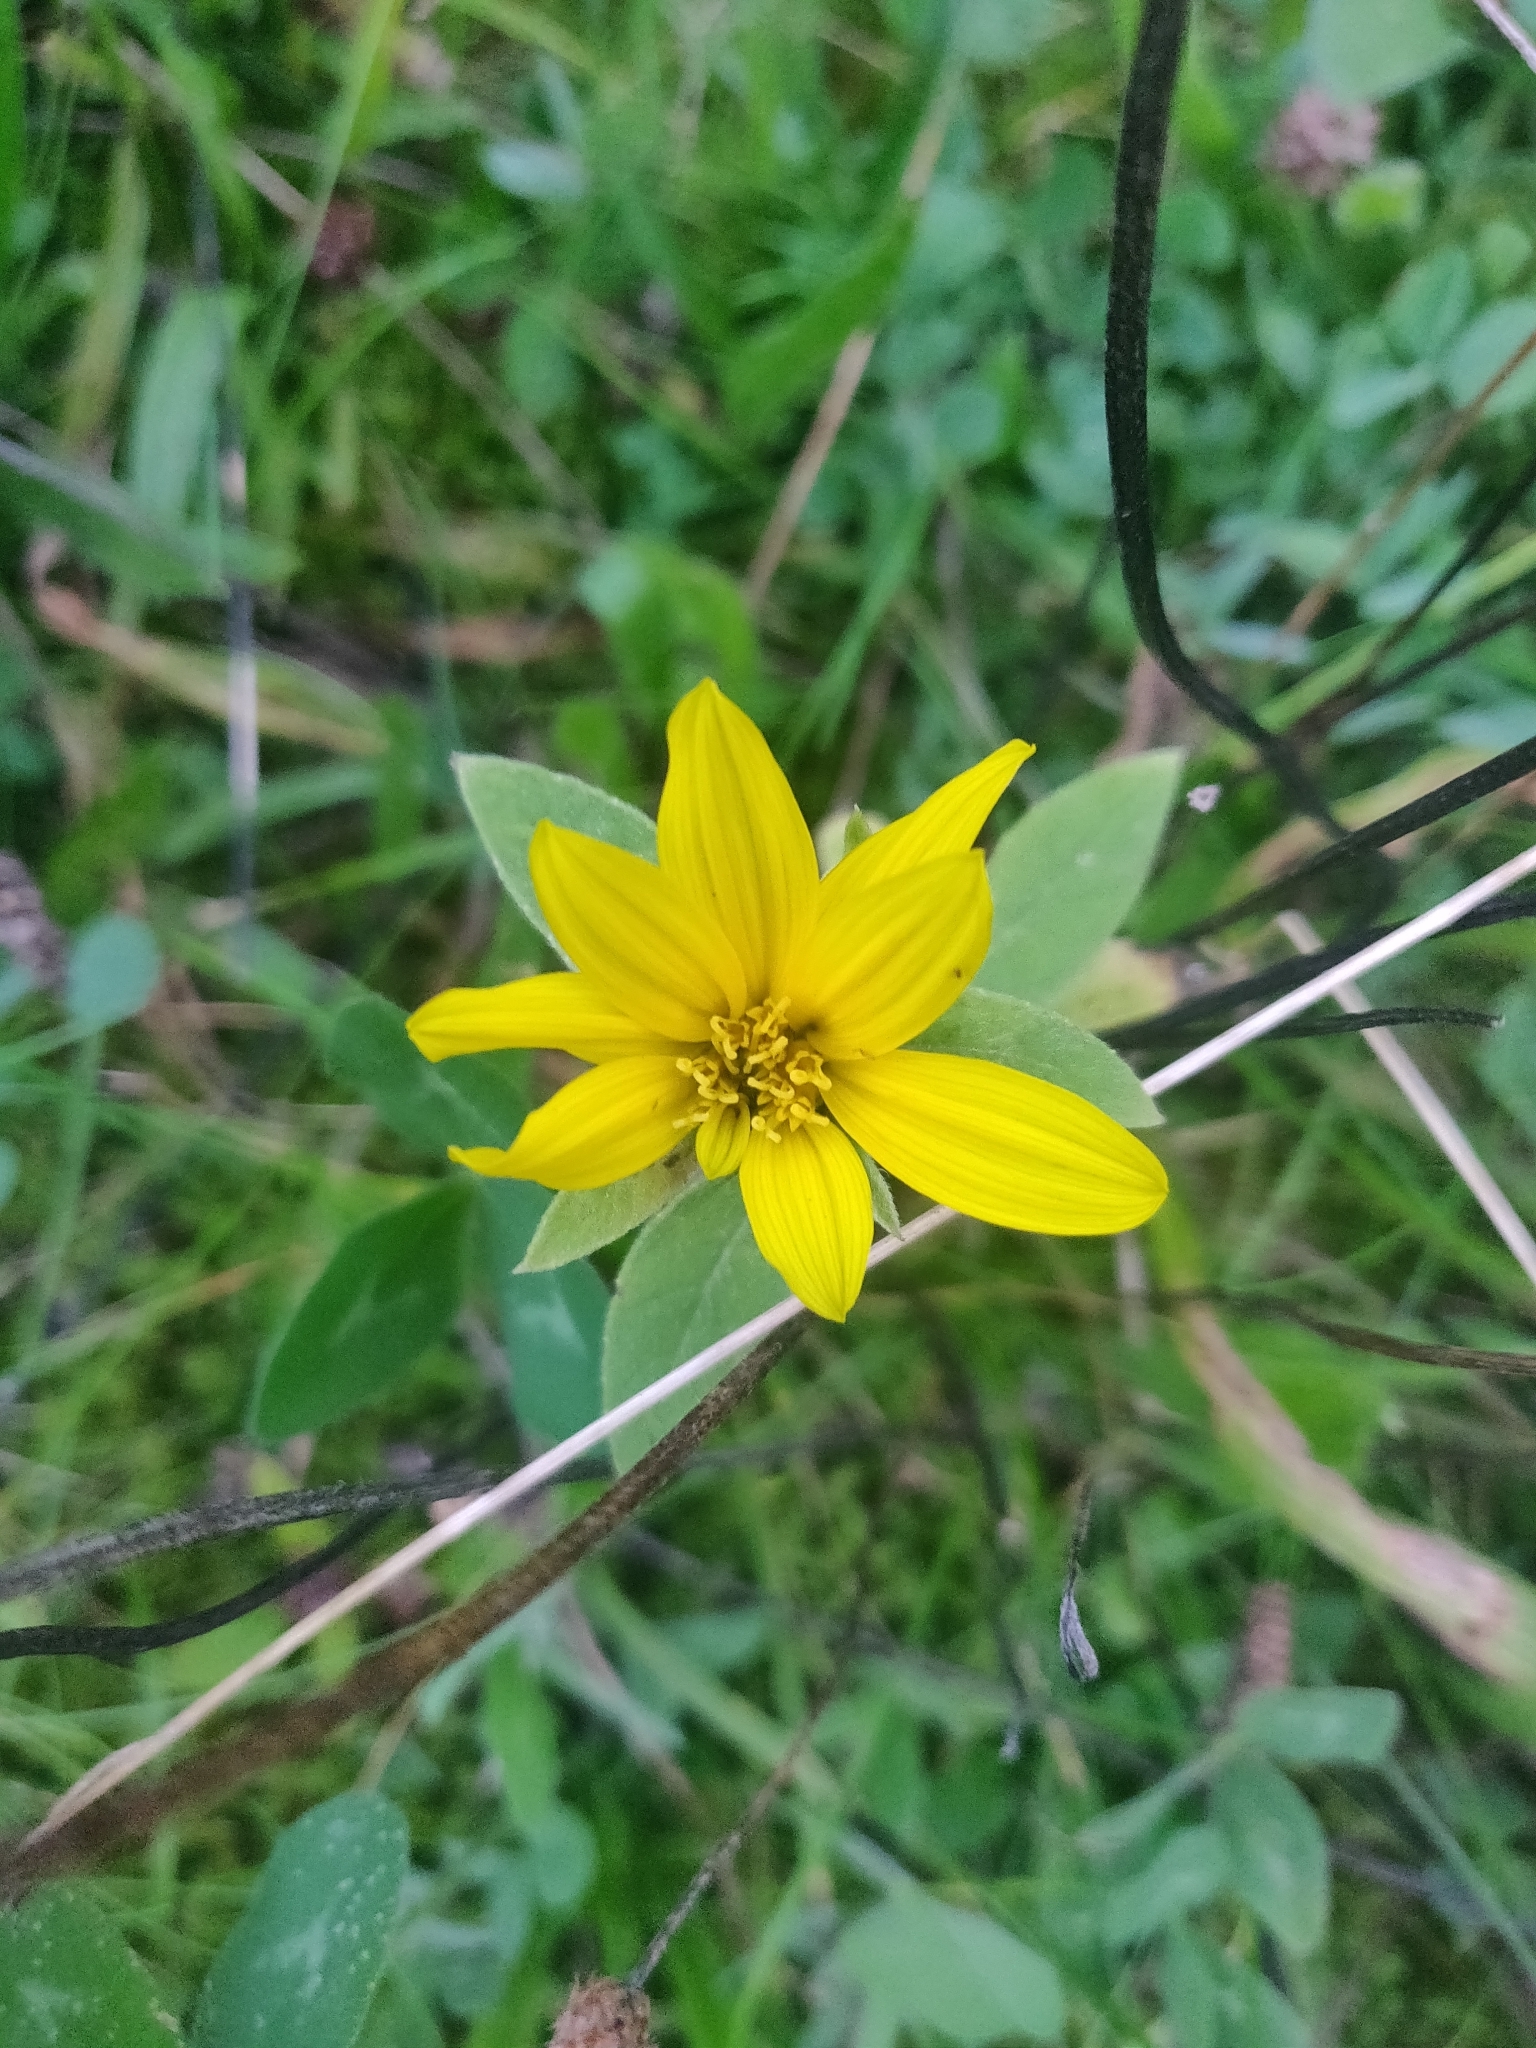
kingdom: Plantae
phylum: Tracheophyta
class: Magnoliopsida
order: Asterales
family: Asteraceae
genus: Helianthus
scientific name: Helianthus tuberosus
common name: Jerusalem artichoke
